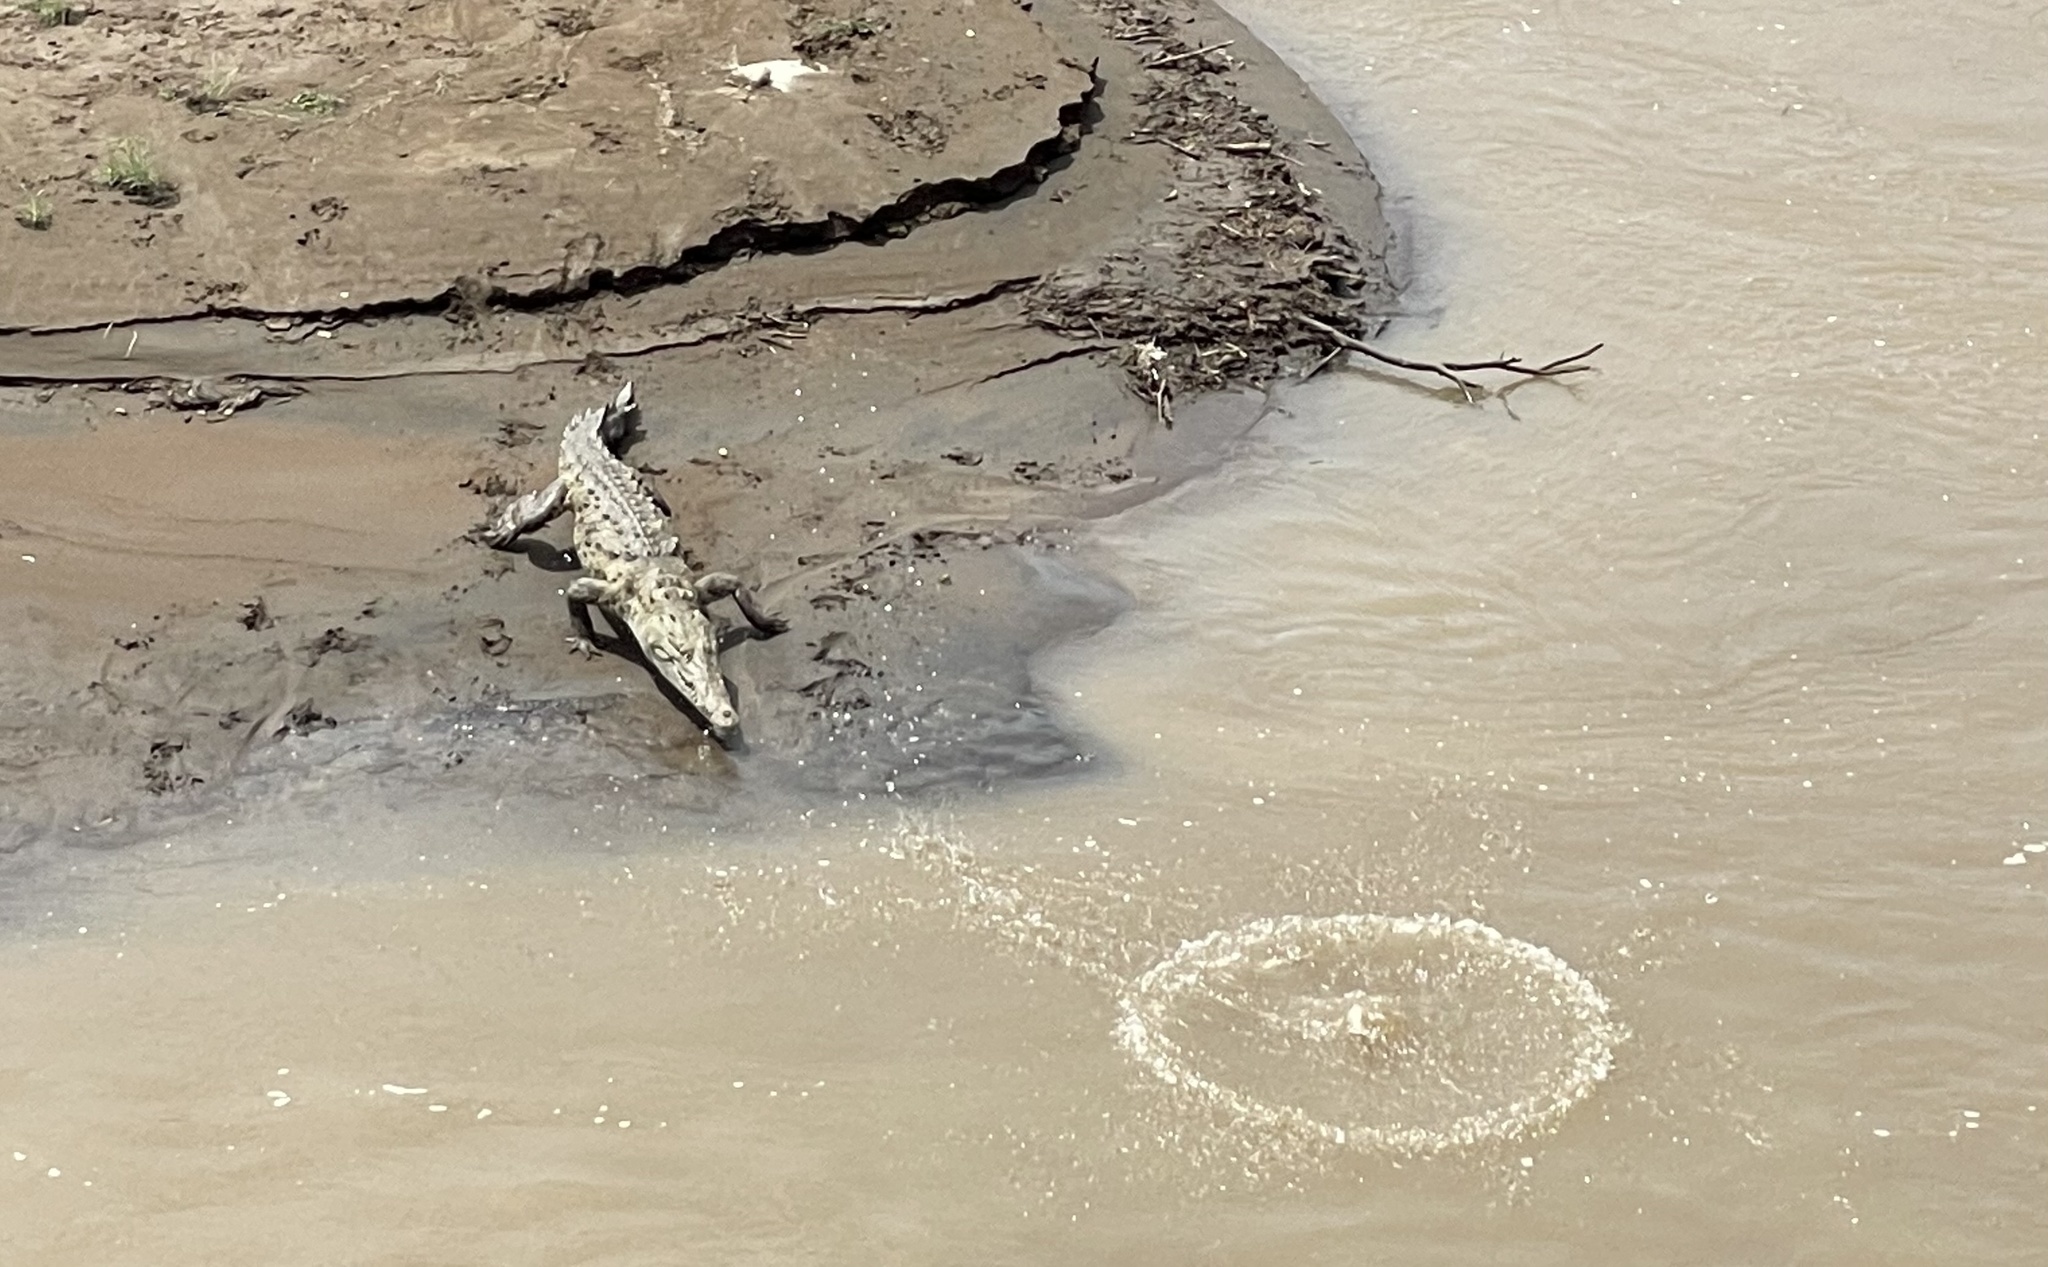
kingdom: Animalia
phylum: Chordata
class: Crocodylia
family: Crocodylidae
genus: Crocodylus
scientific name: Crocodylus acutus
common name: American crocodile
